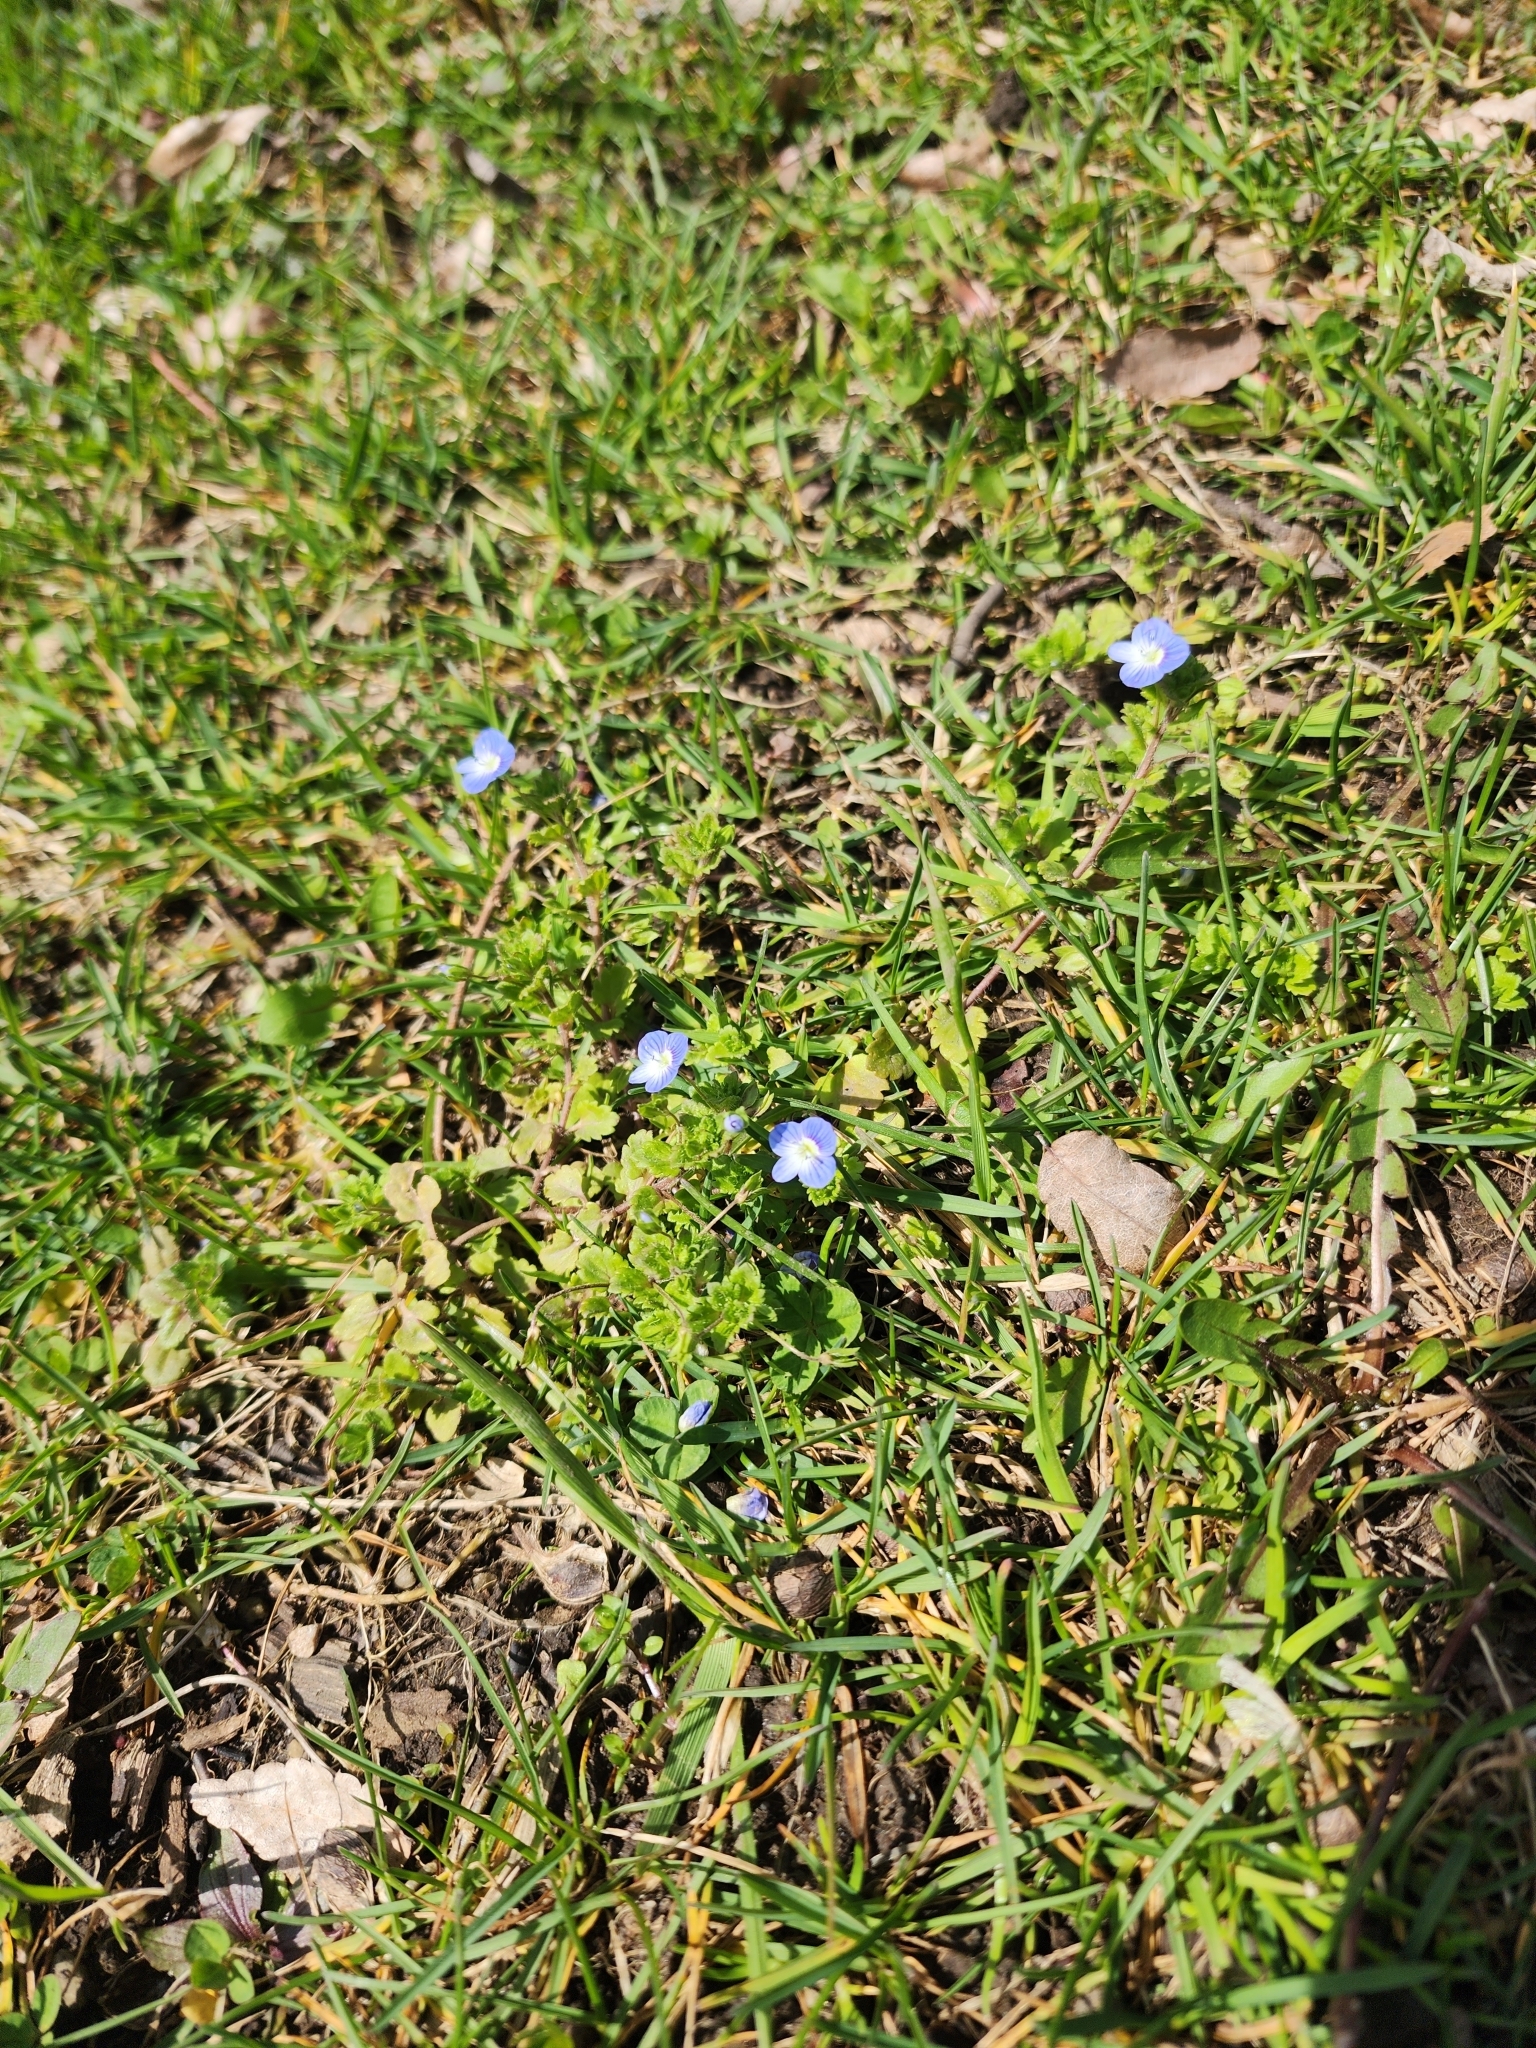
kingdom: Plantae
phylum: Tracheophyta
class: Magnoliopsida
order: Lamiales
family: Plantaginaceae
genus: Veronica
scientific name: Veronica persica
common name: Common field-speedwell
